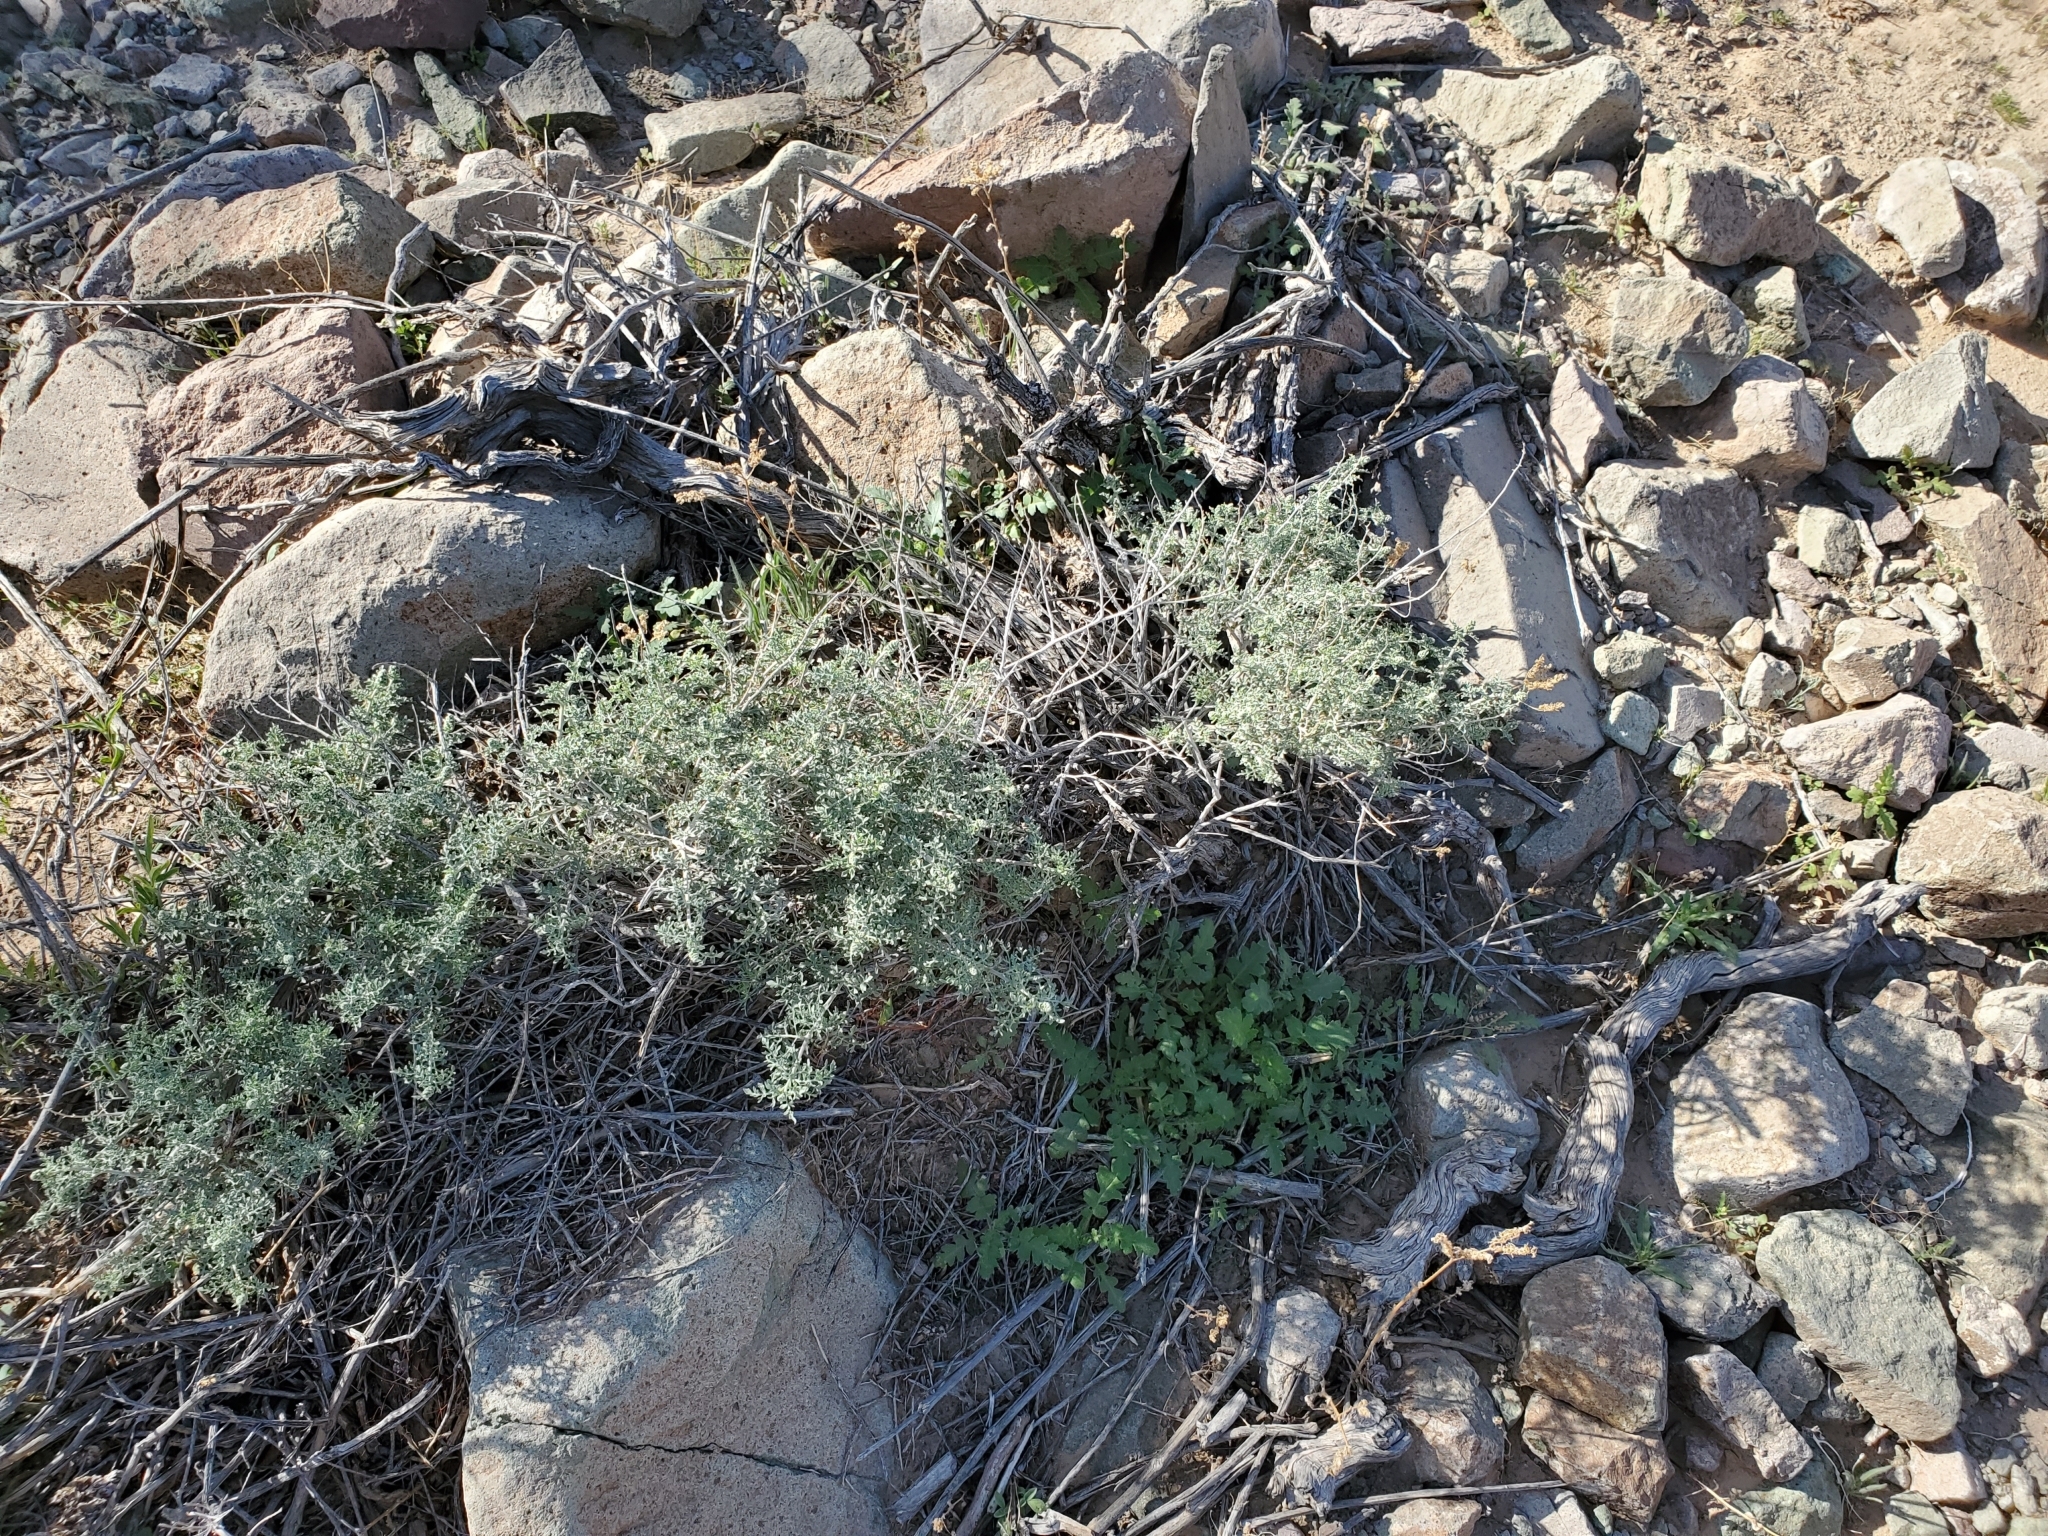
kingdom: Plantae
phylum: Tracheophyta
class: Magnoliopsida
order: Asterales
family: Asteraceae
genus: Ambrosia
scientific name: Ambrosia dumosa
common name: Bur-sage
